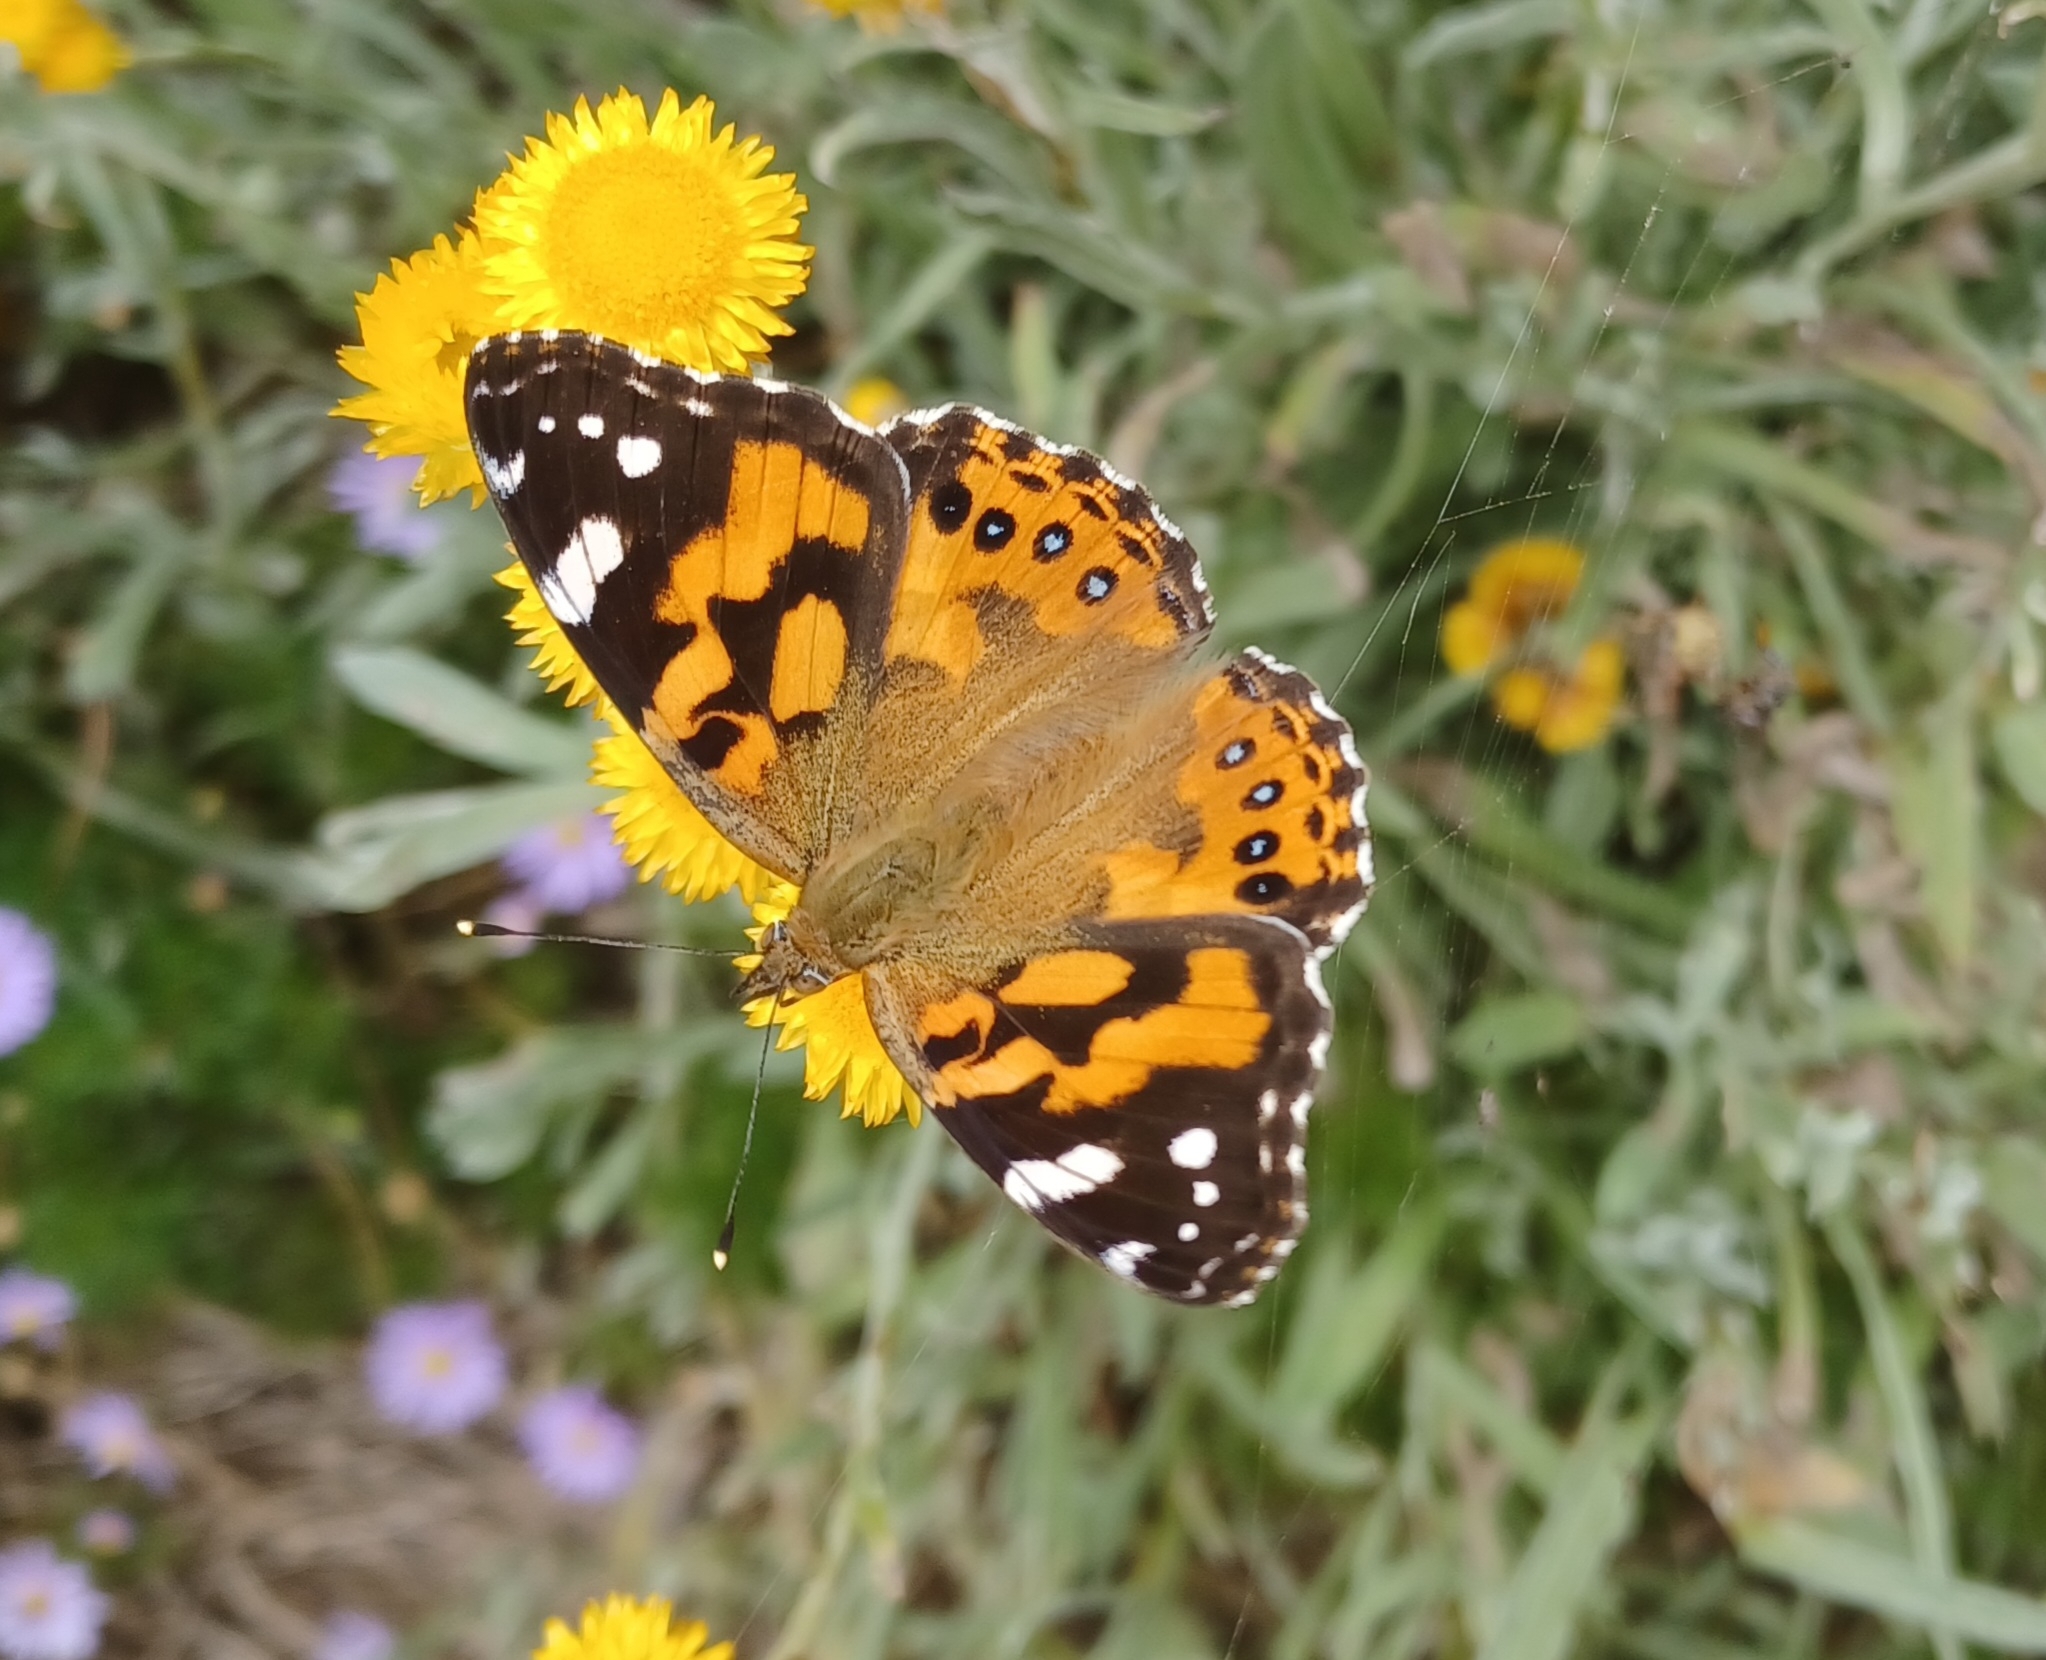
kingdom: Animalia
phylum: Arthropoda
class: Insecta
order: Lepidoptera
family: Nymphalidae
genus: Vanessa
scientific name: Vanessa kershawi
